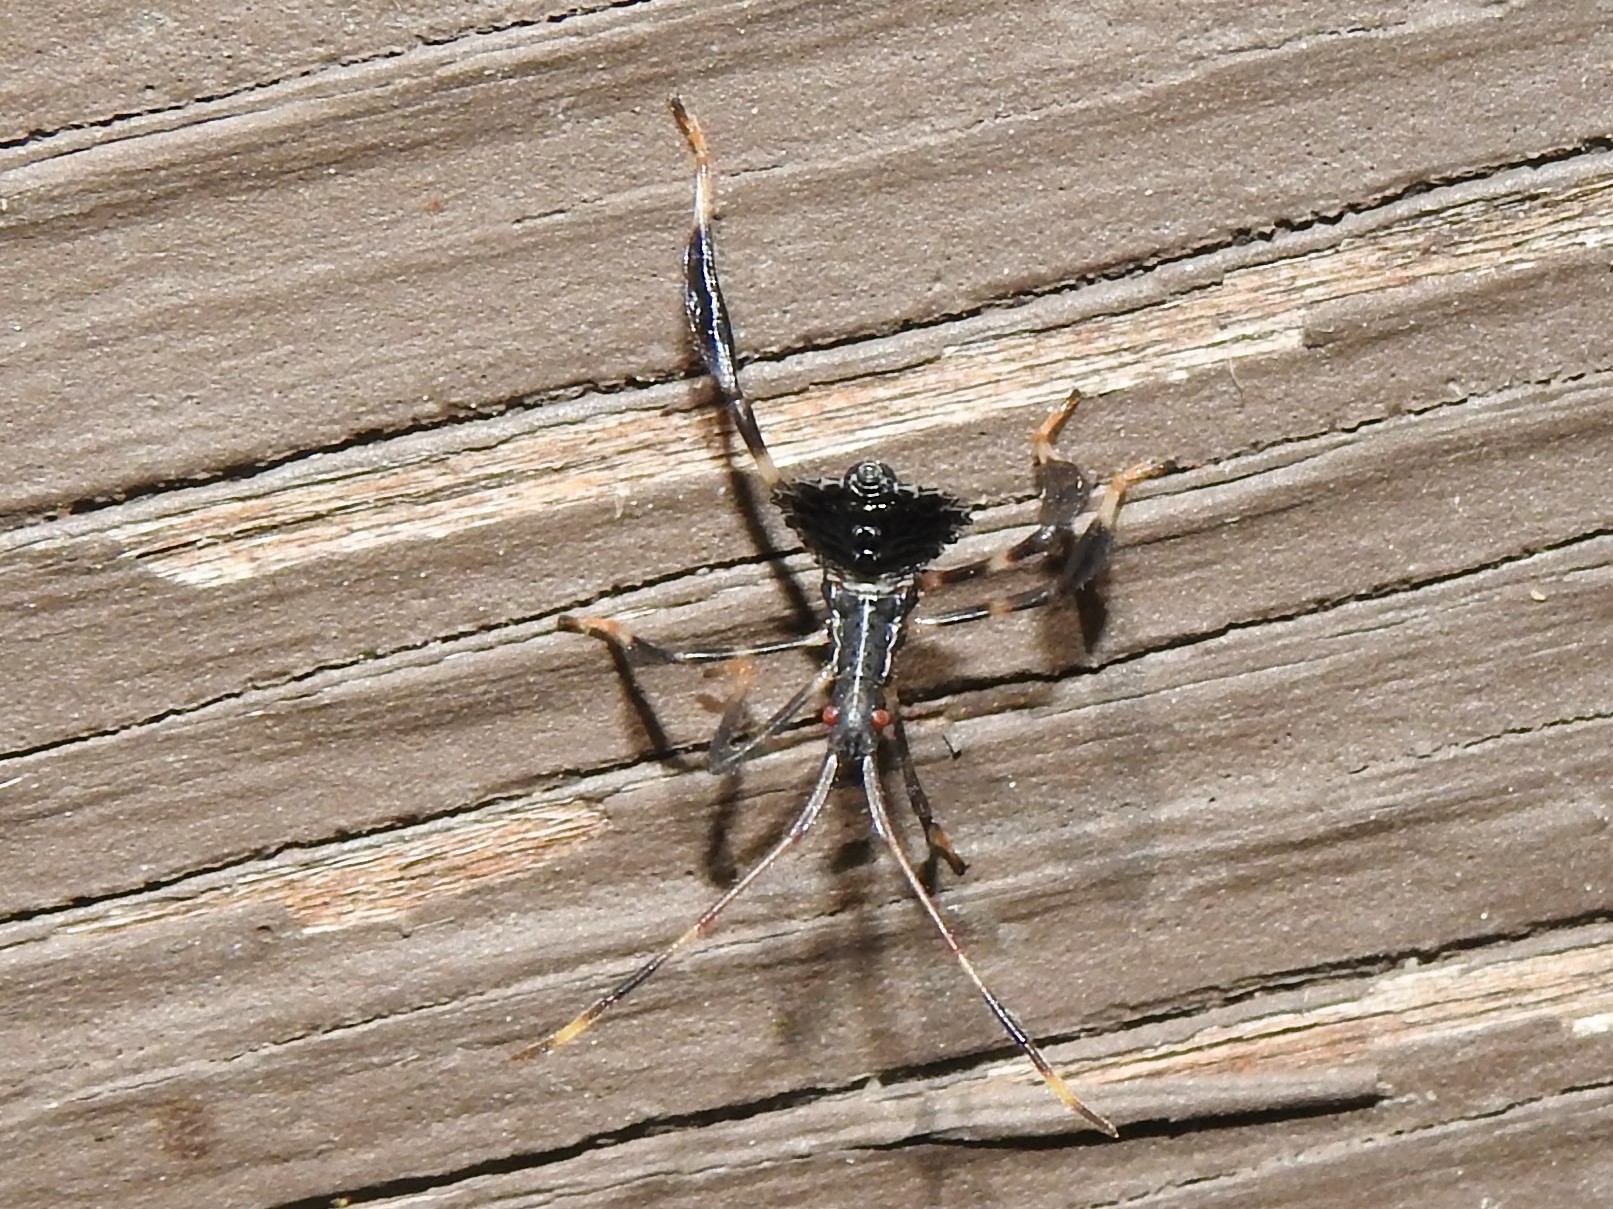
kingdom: Animalia
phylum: Arthropoda
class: Insecta
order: Hemiptera
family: Coreidae
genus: Acanthocephala
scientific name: Acanthocephala terminalis
